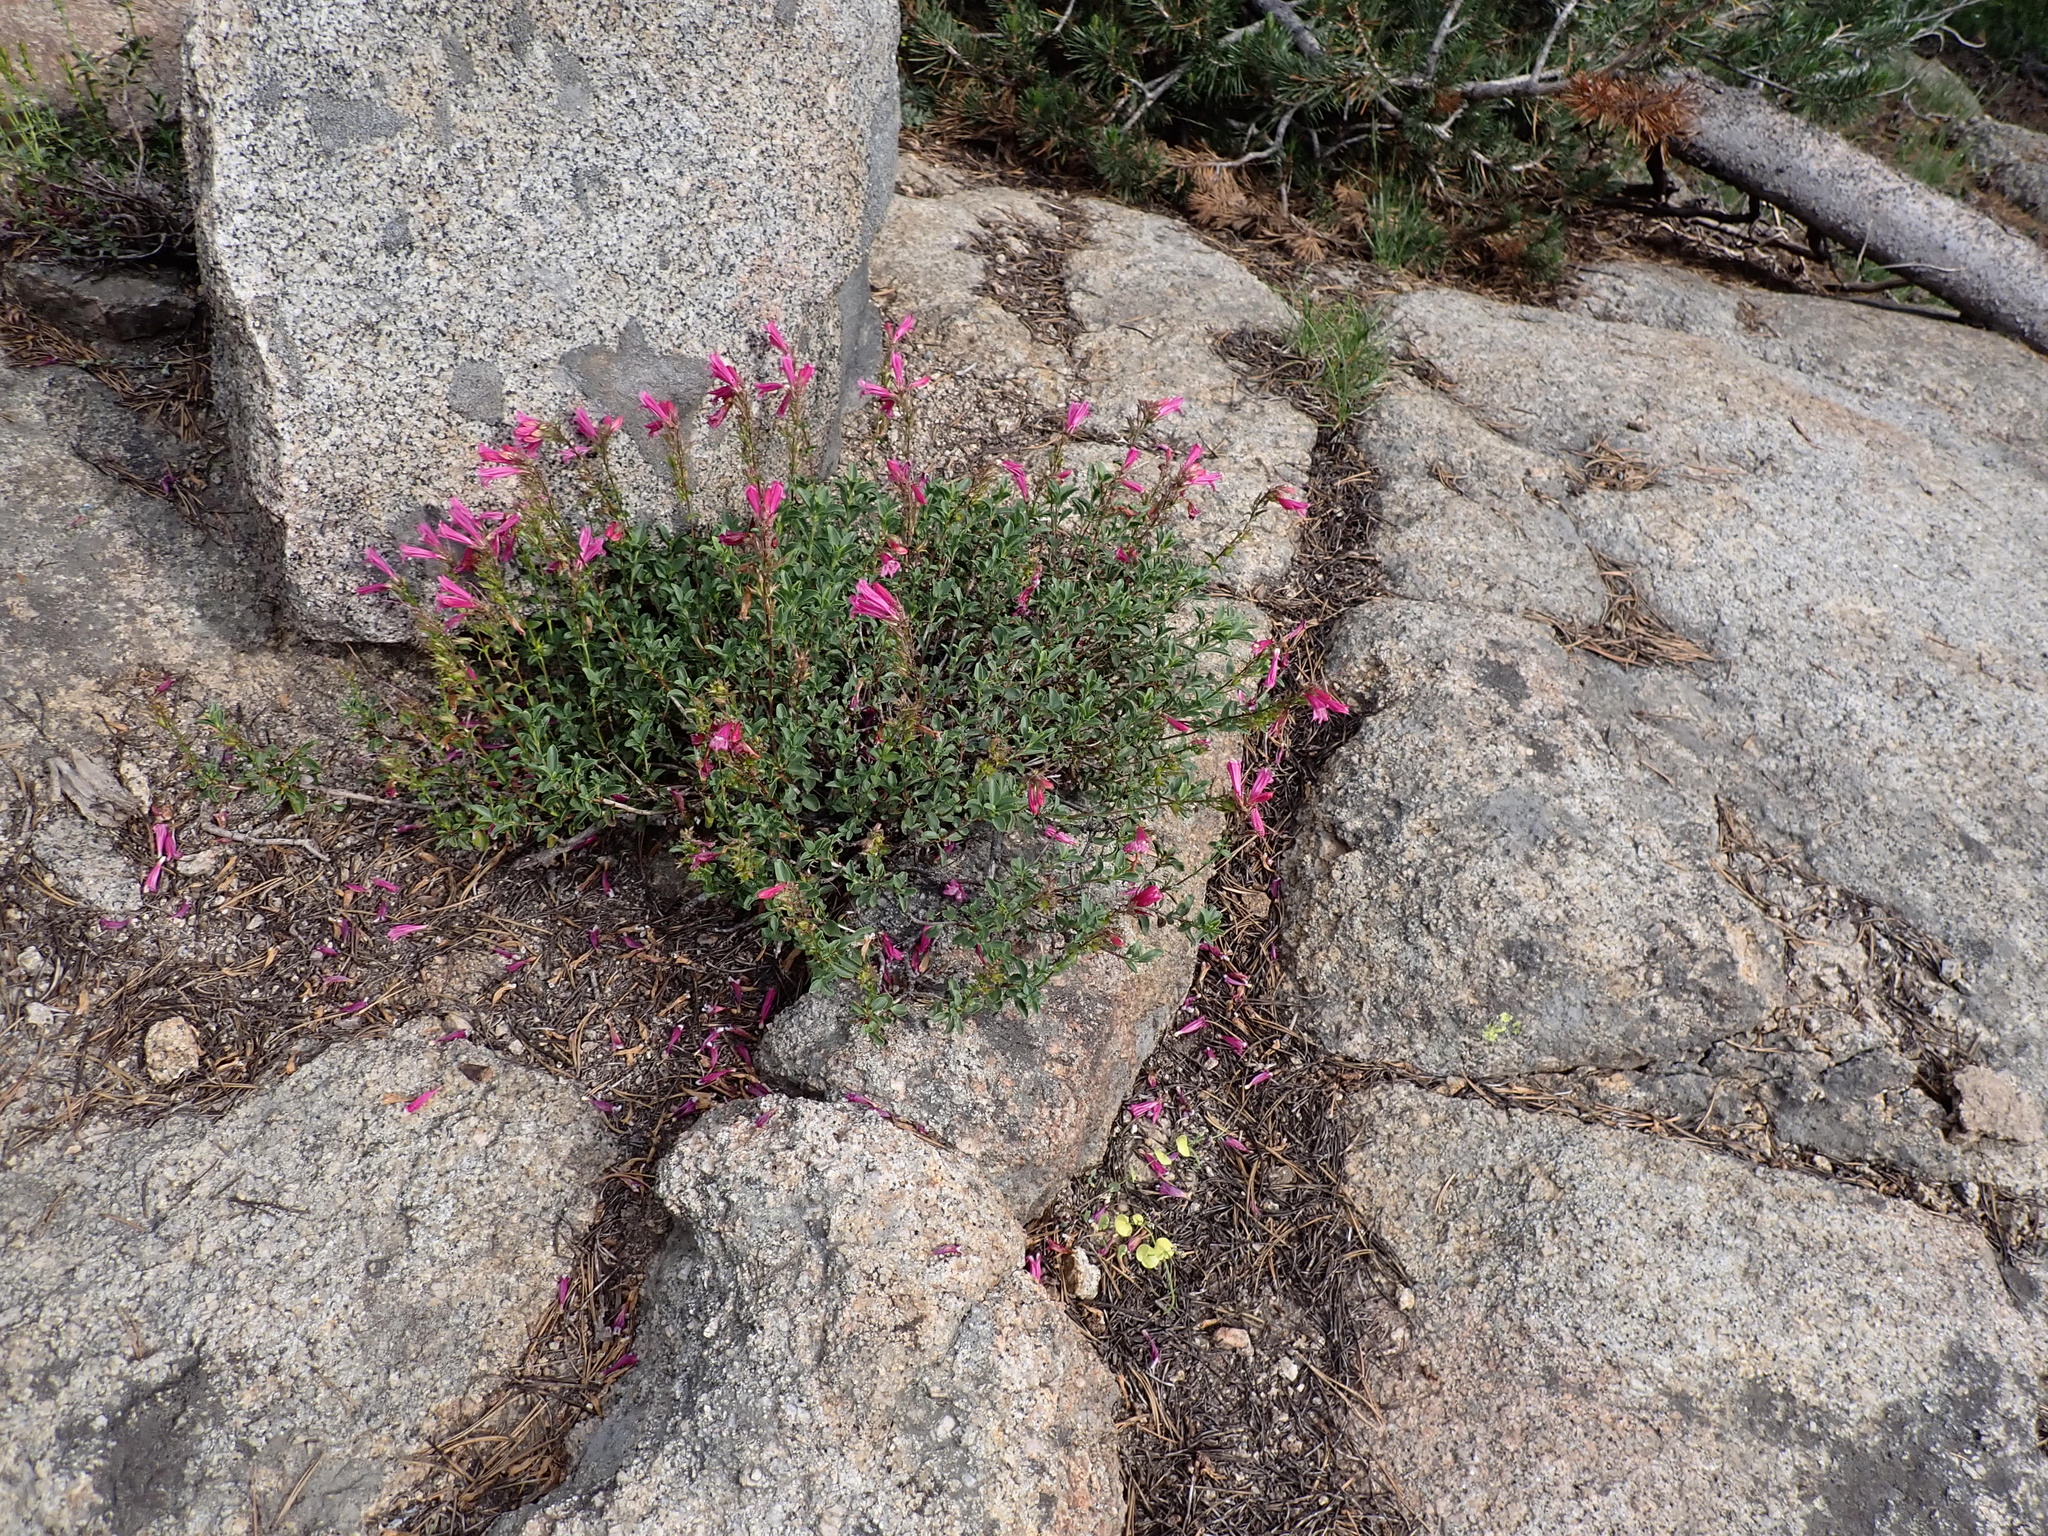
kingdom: Plantae
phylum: Tracheophyta
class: Magnoliopsida
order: Lamiales
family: Plantaginaceae
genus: Penstemon
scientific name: Penstemon newberryi
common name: Mountain-pride
